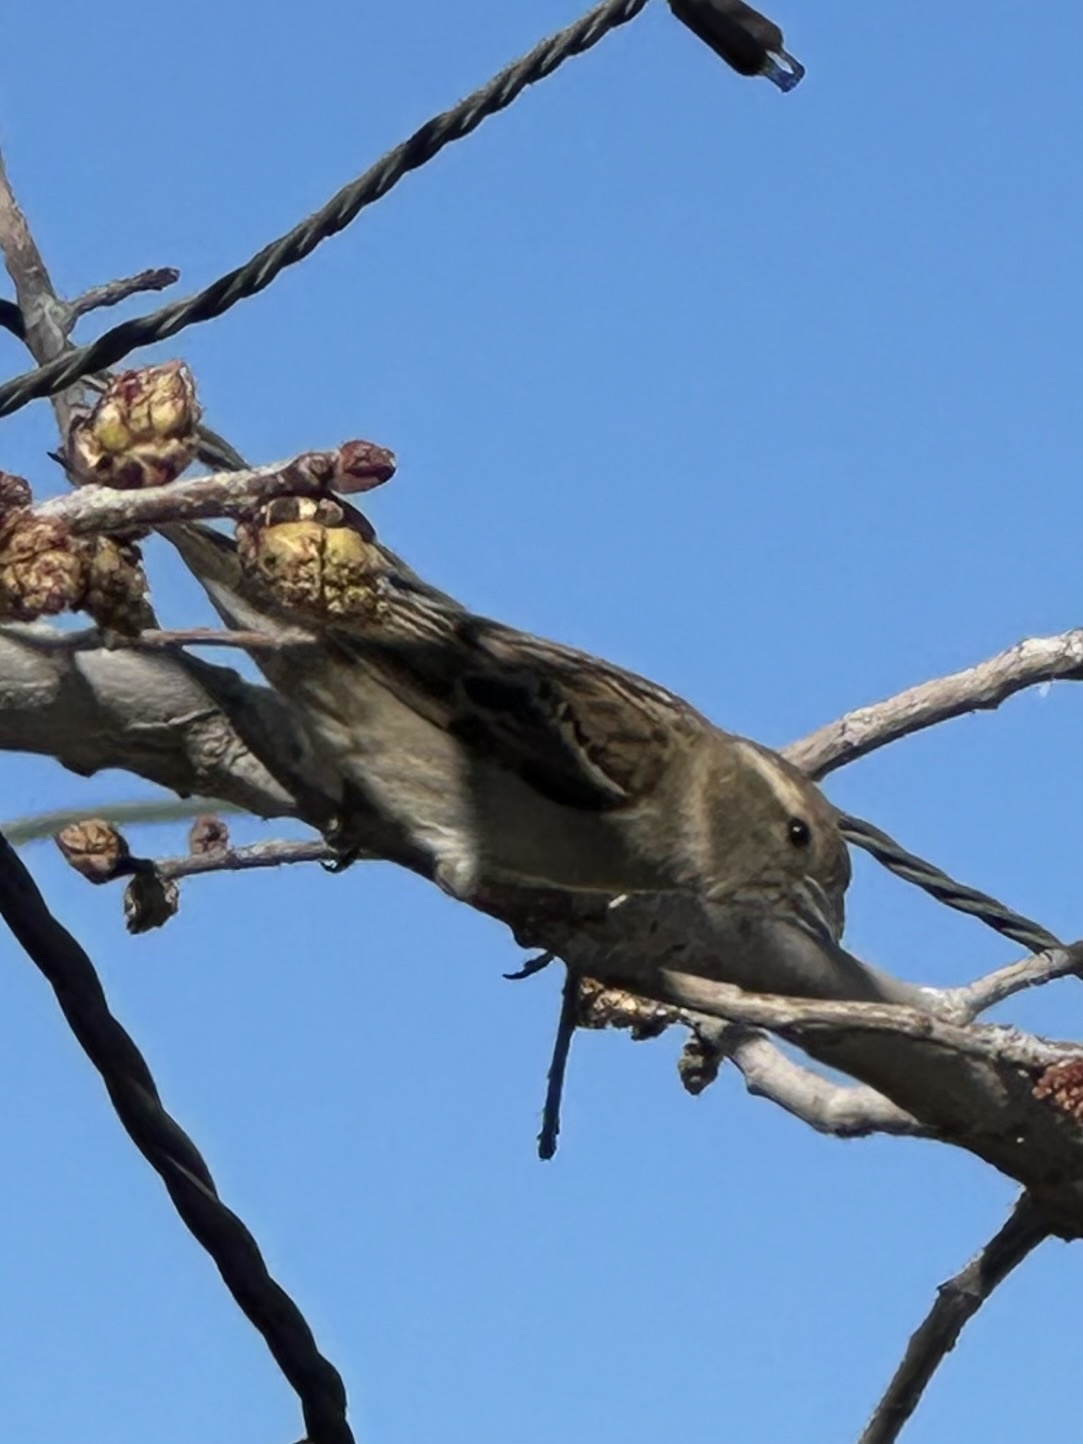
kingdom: Animalia
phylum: Chordata
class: Aves
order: Passeriformes
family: Passeridae
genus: Passer
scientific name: Passer domesticus
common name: House sparrow
